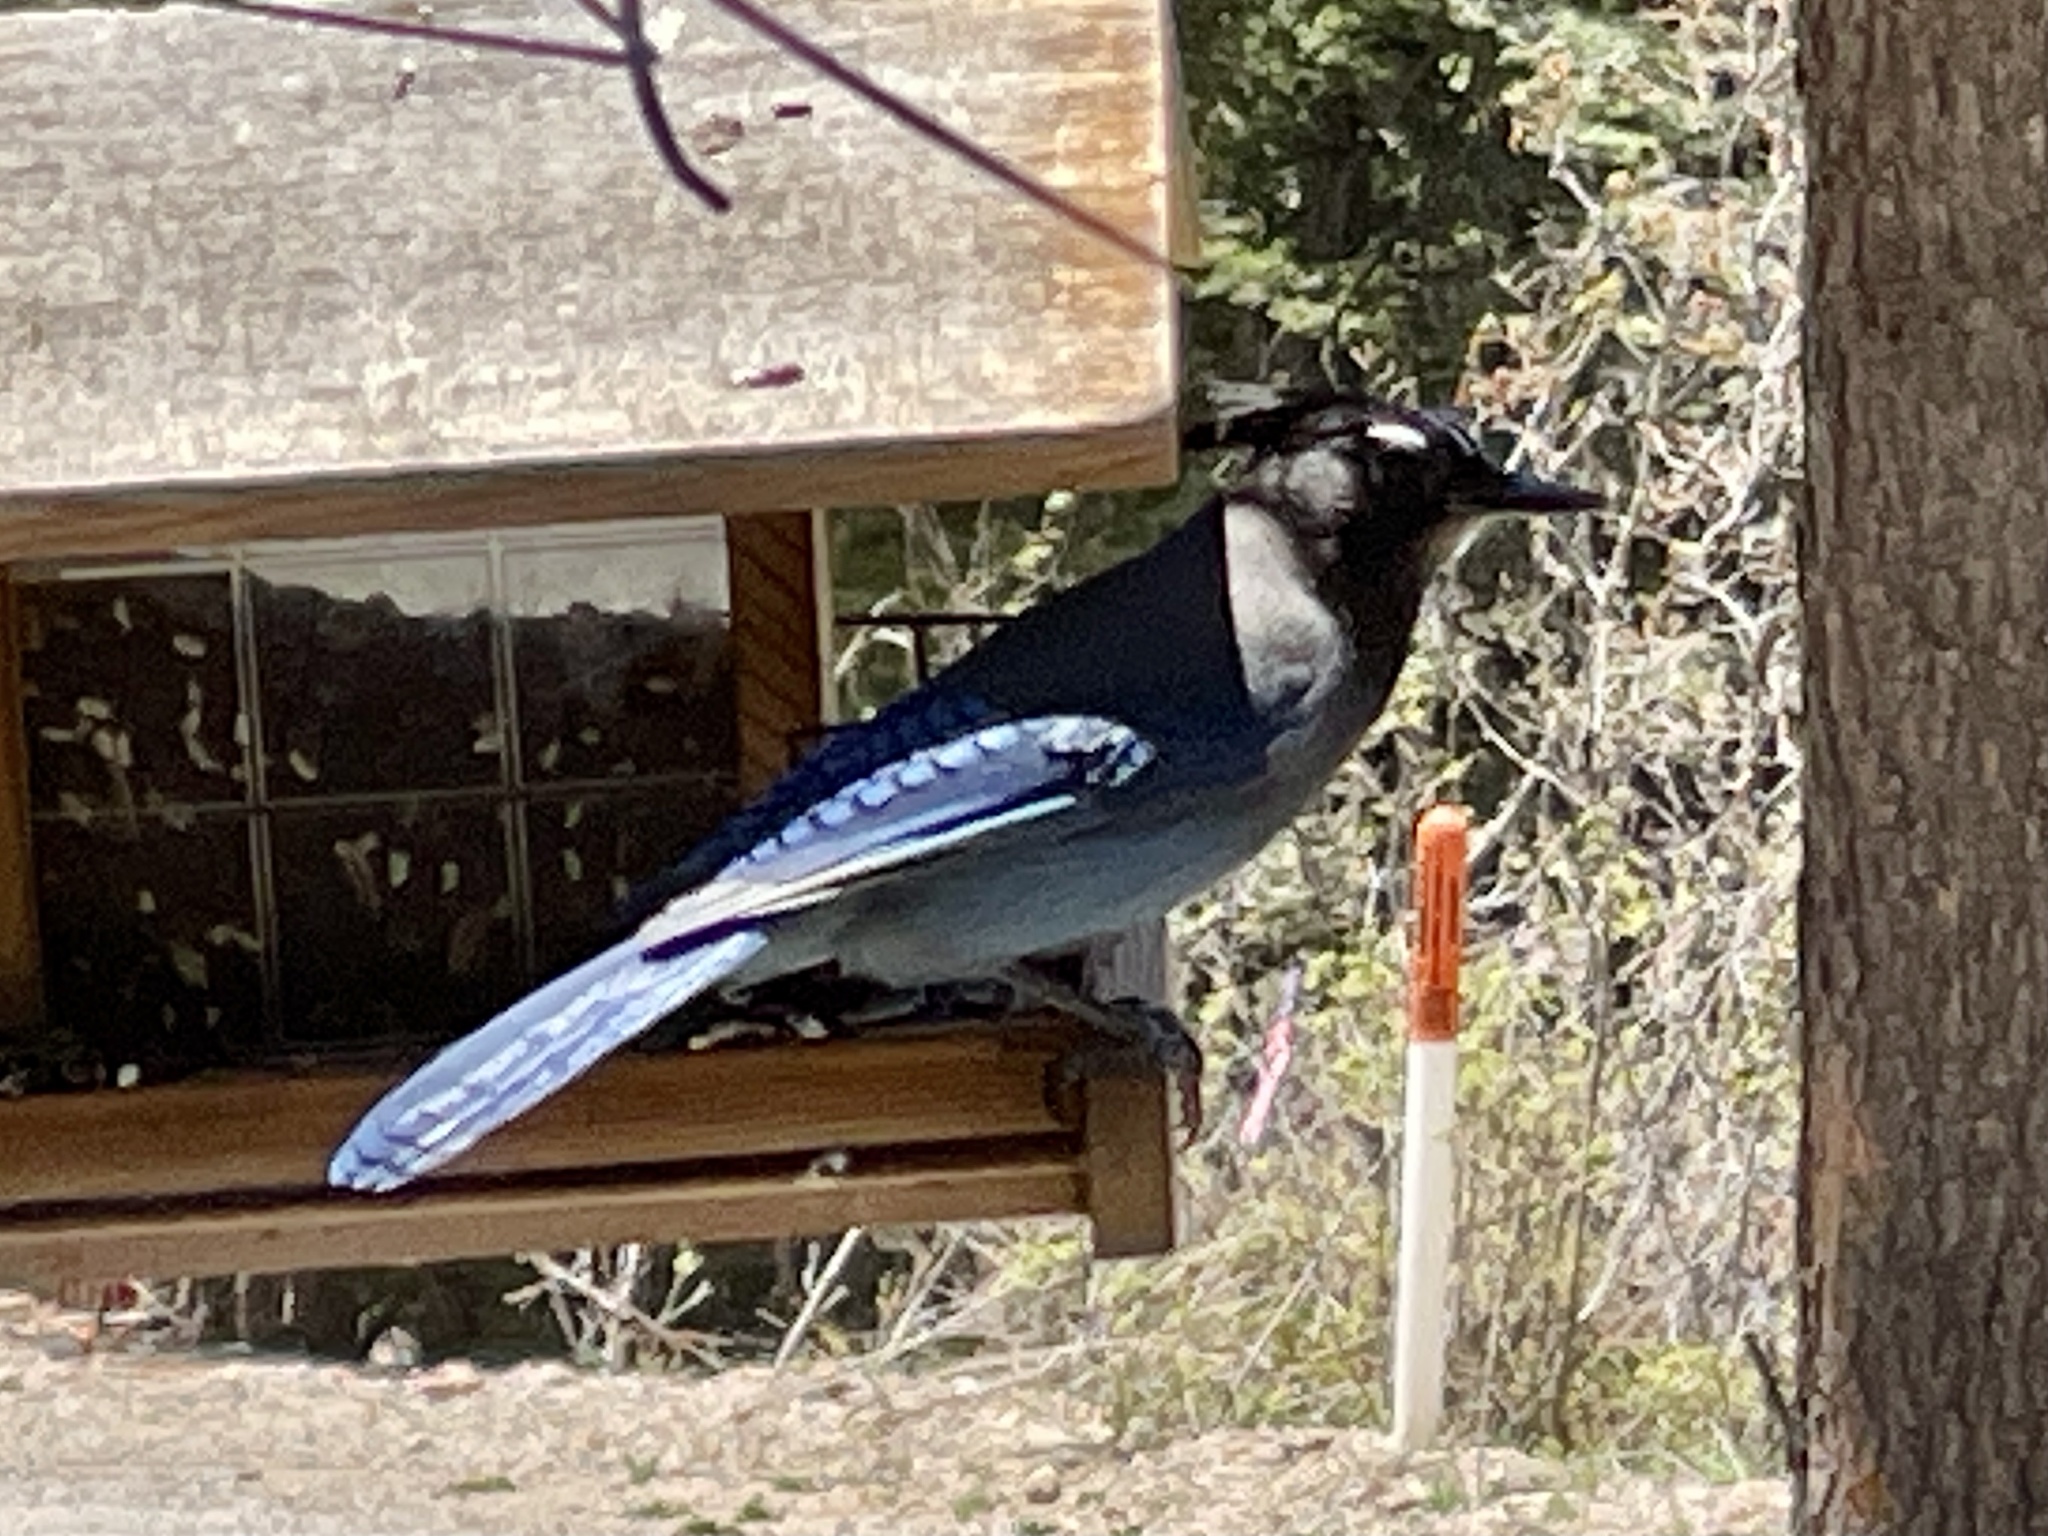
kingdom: Animalia
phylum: Chordata
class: Aves
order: Passeriformes
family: Corvidae
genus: Cyanocitta
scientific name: Cyanocitta stelleri
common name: Steller's jay
